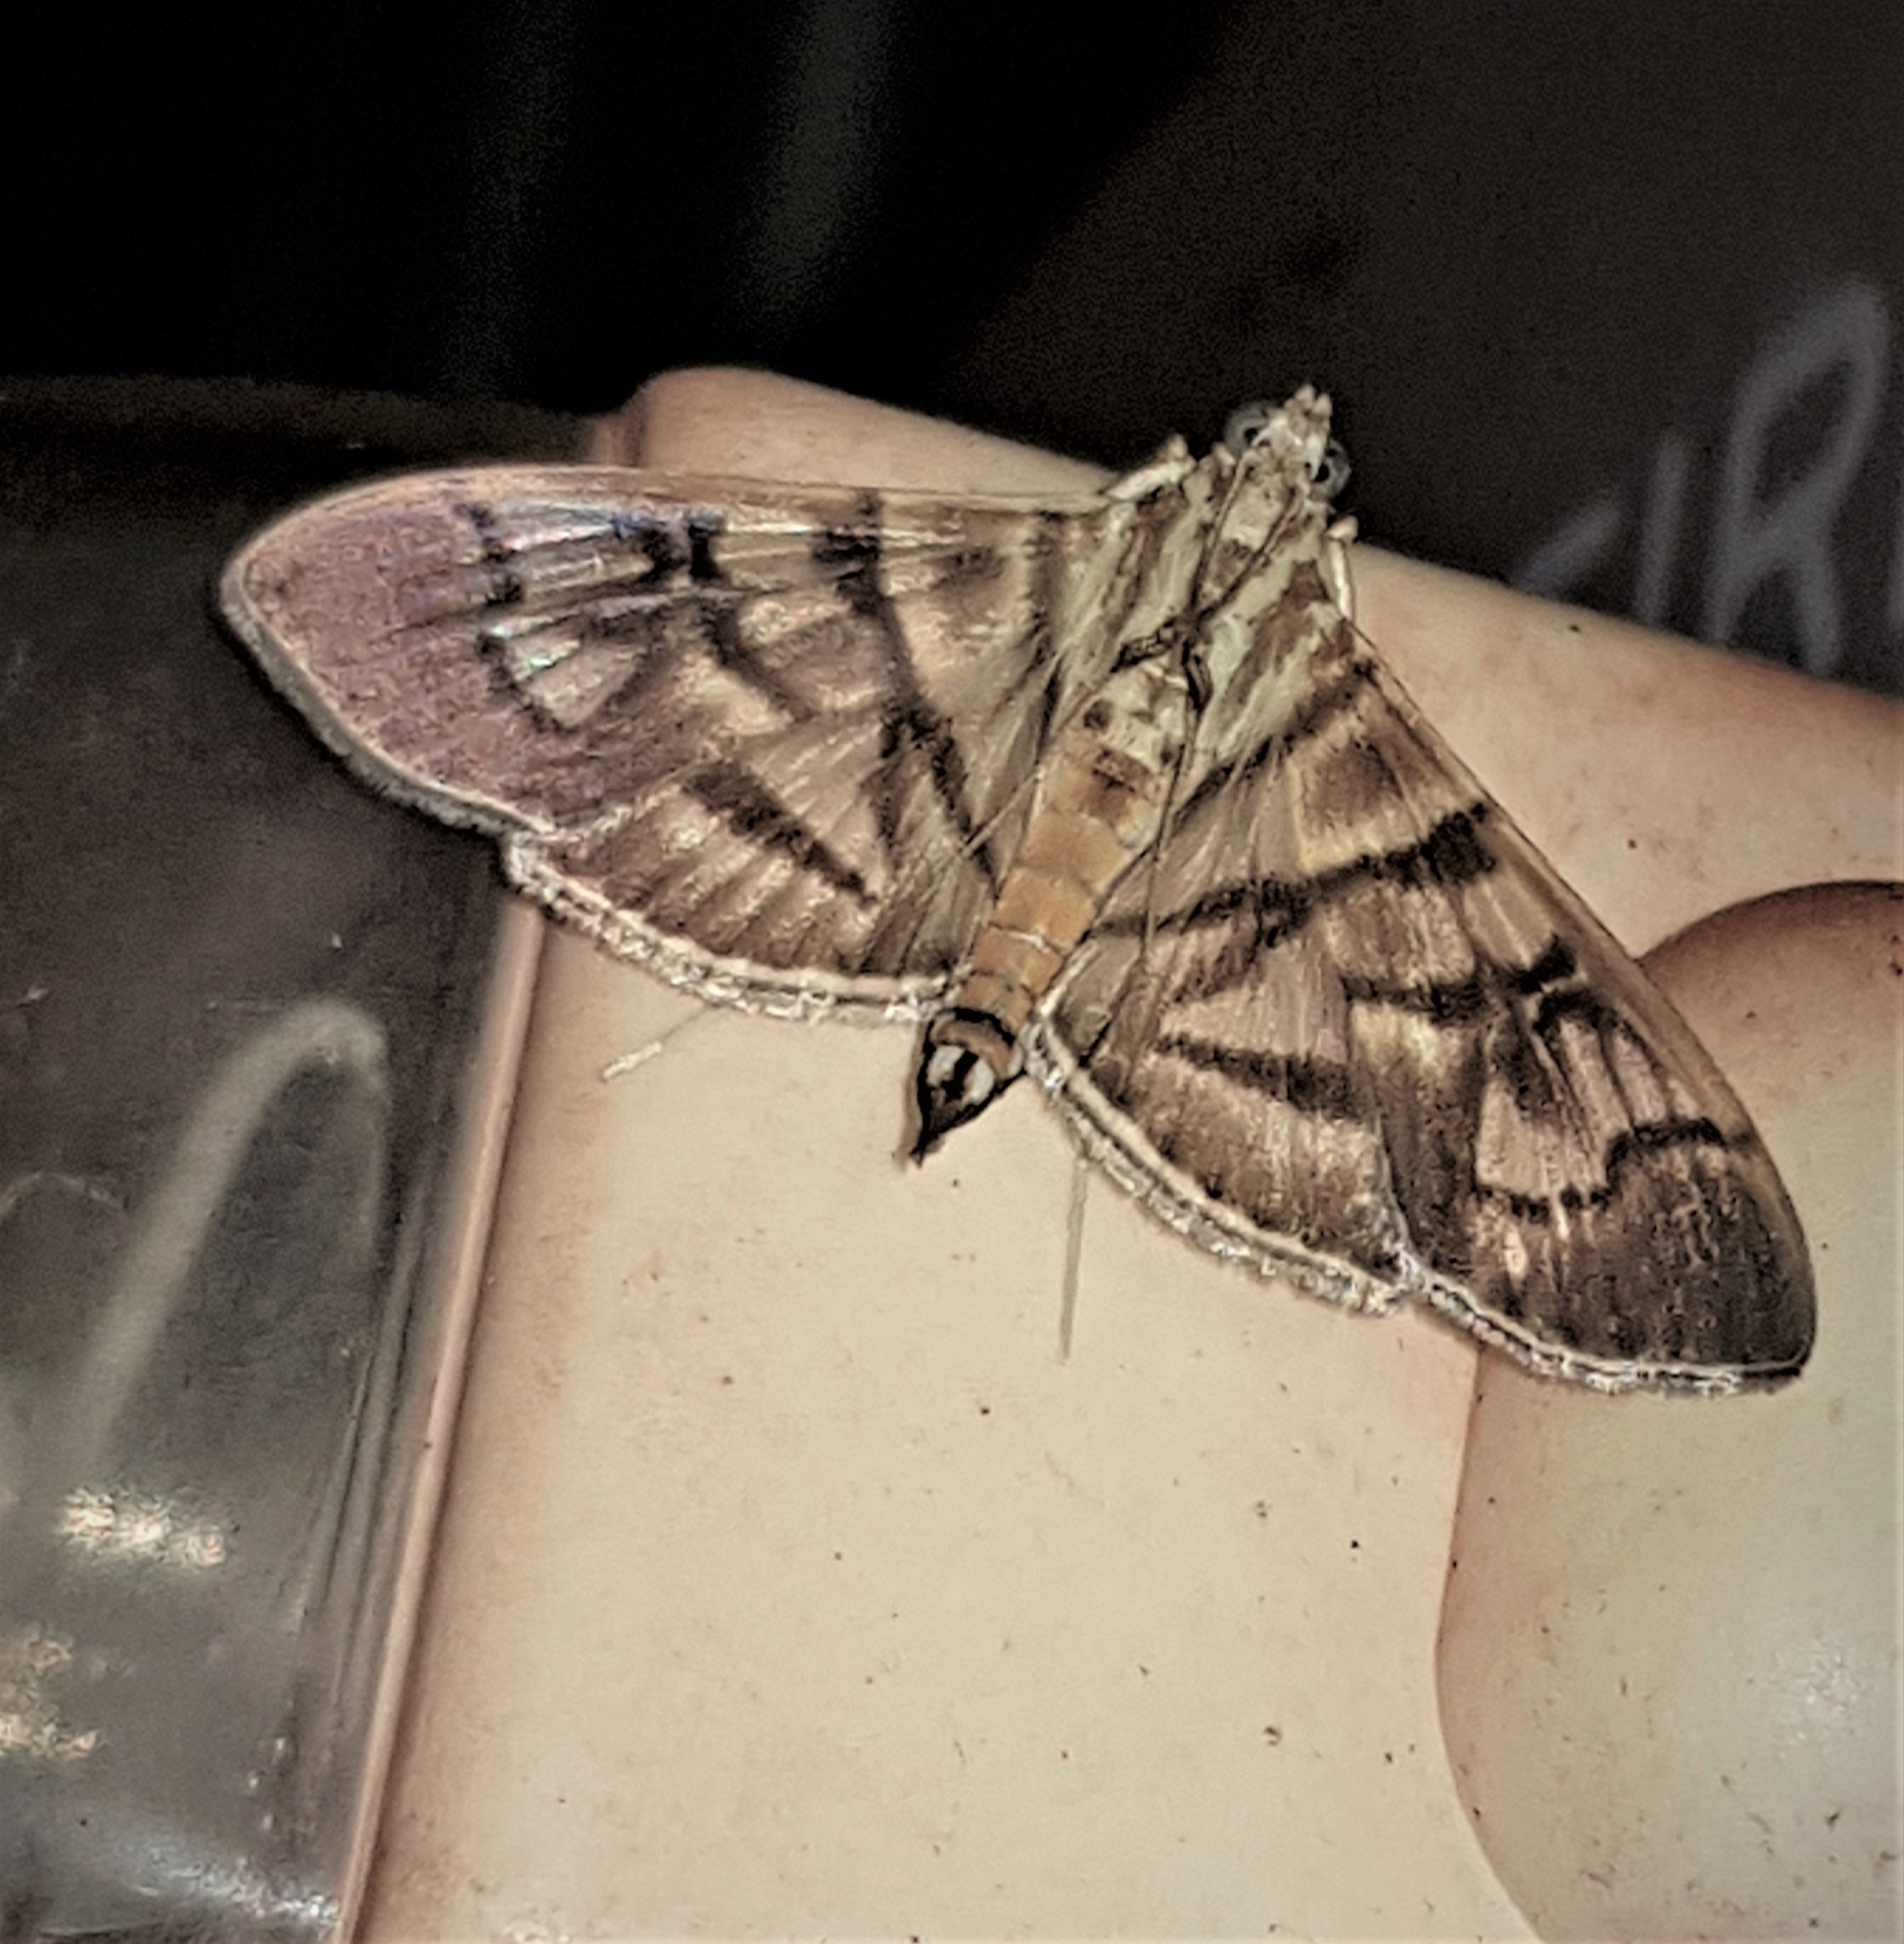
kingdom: Animalia
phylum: Arthropoda
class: Insecta
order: Lepidoptera
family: Crambidae
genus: Pilocrocis
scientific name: Pilocrocis lauralis
